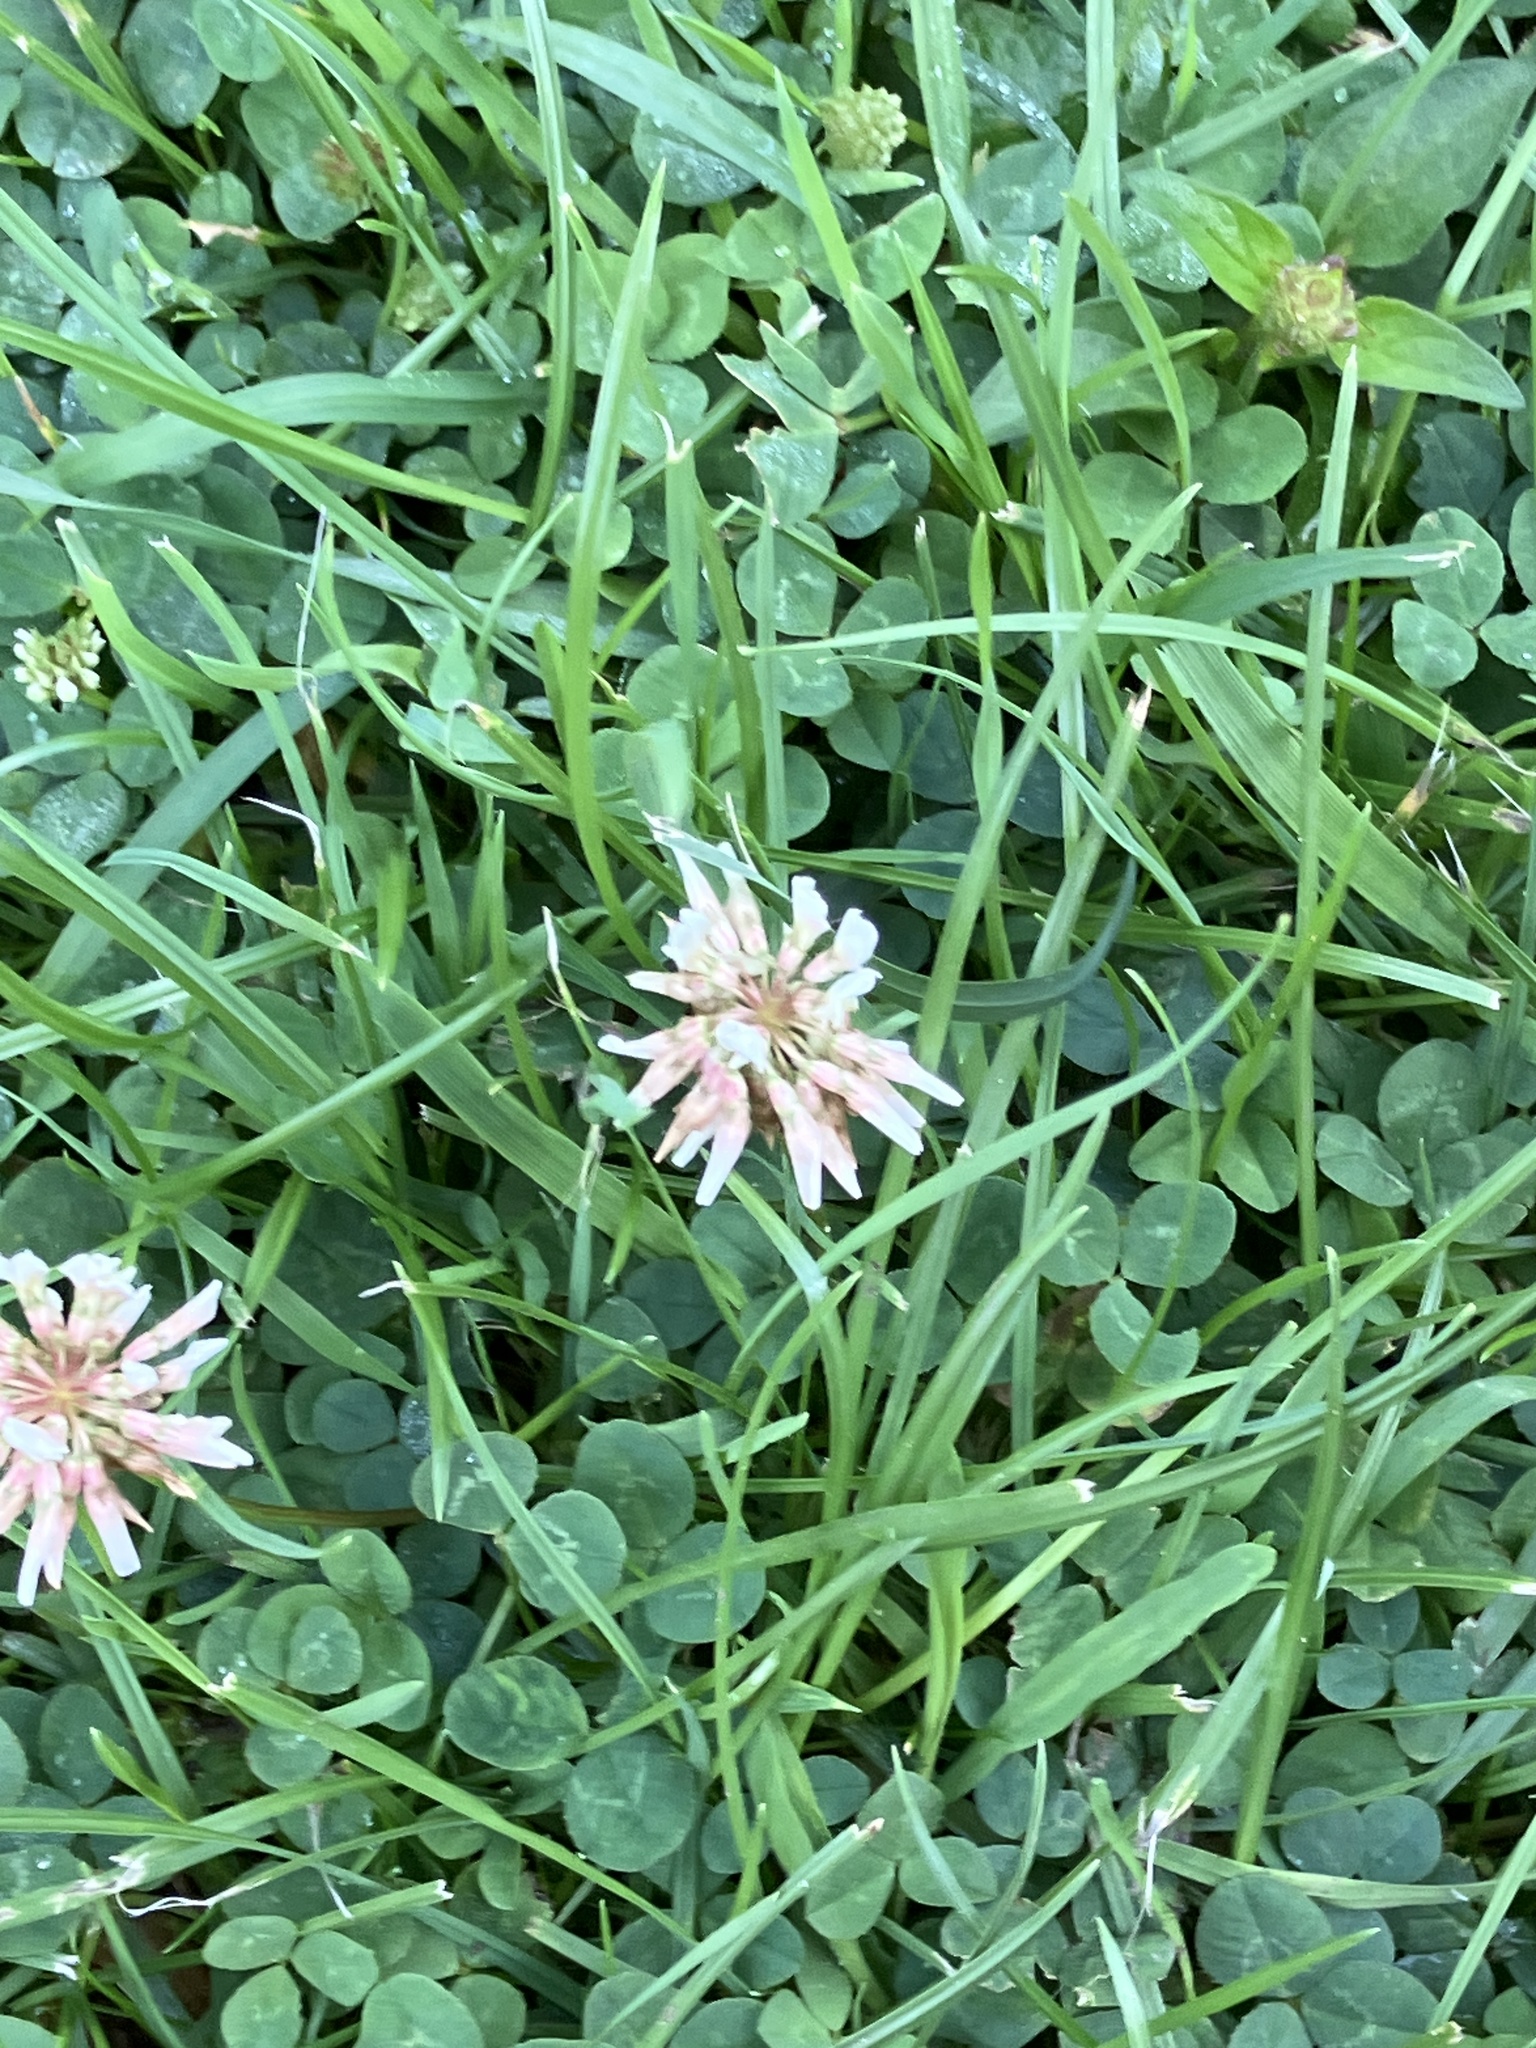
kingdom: Plantae
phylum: Tracheophyta
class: Magnoliopsida
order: Fabales
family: Fabaceae
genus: Trifolium
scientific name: Trifolium repens
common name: White clover
